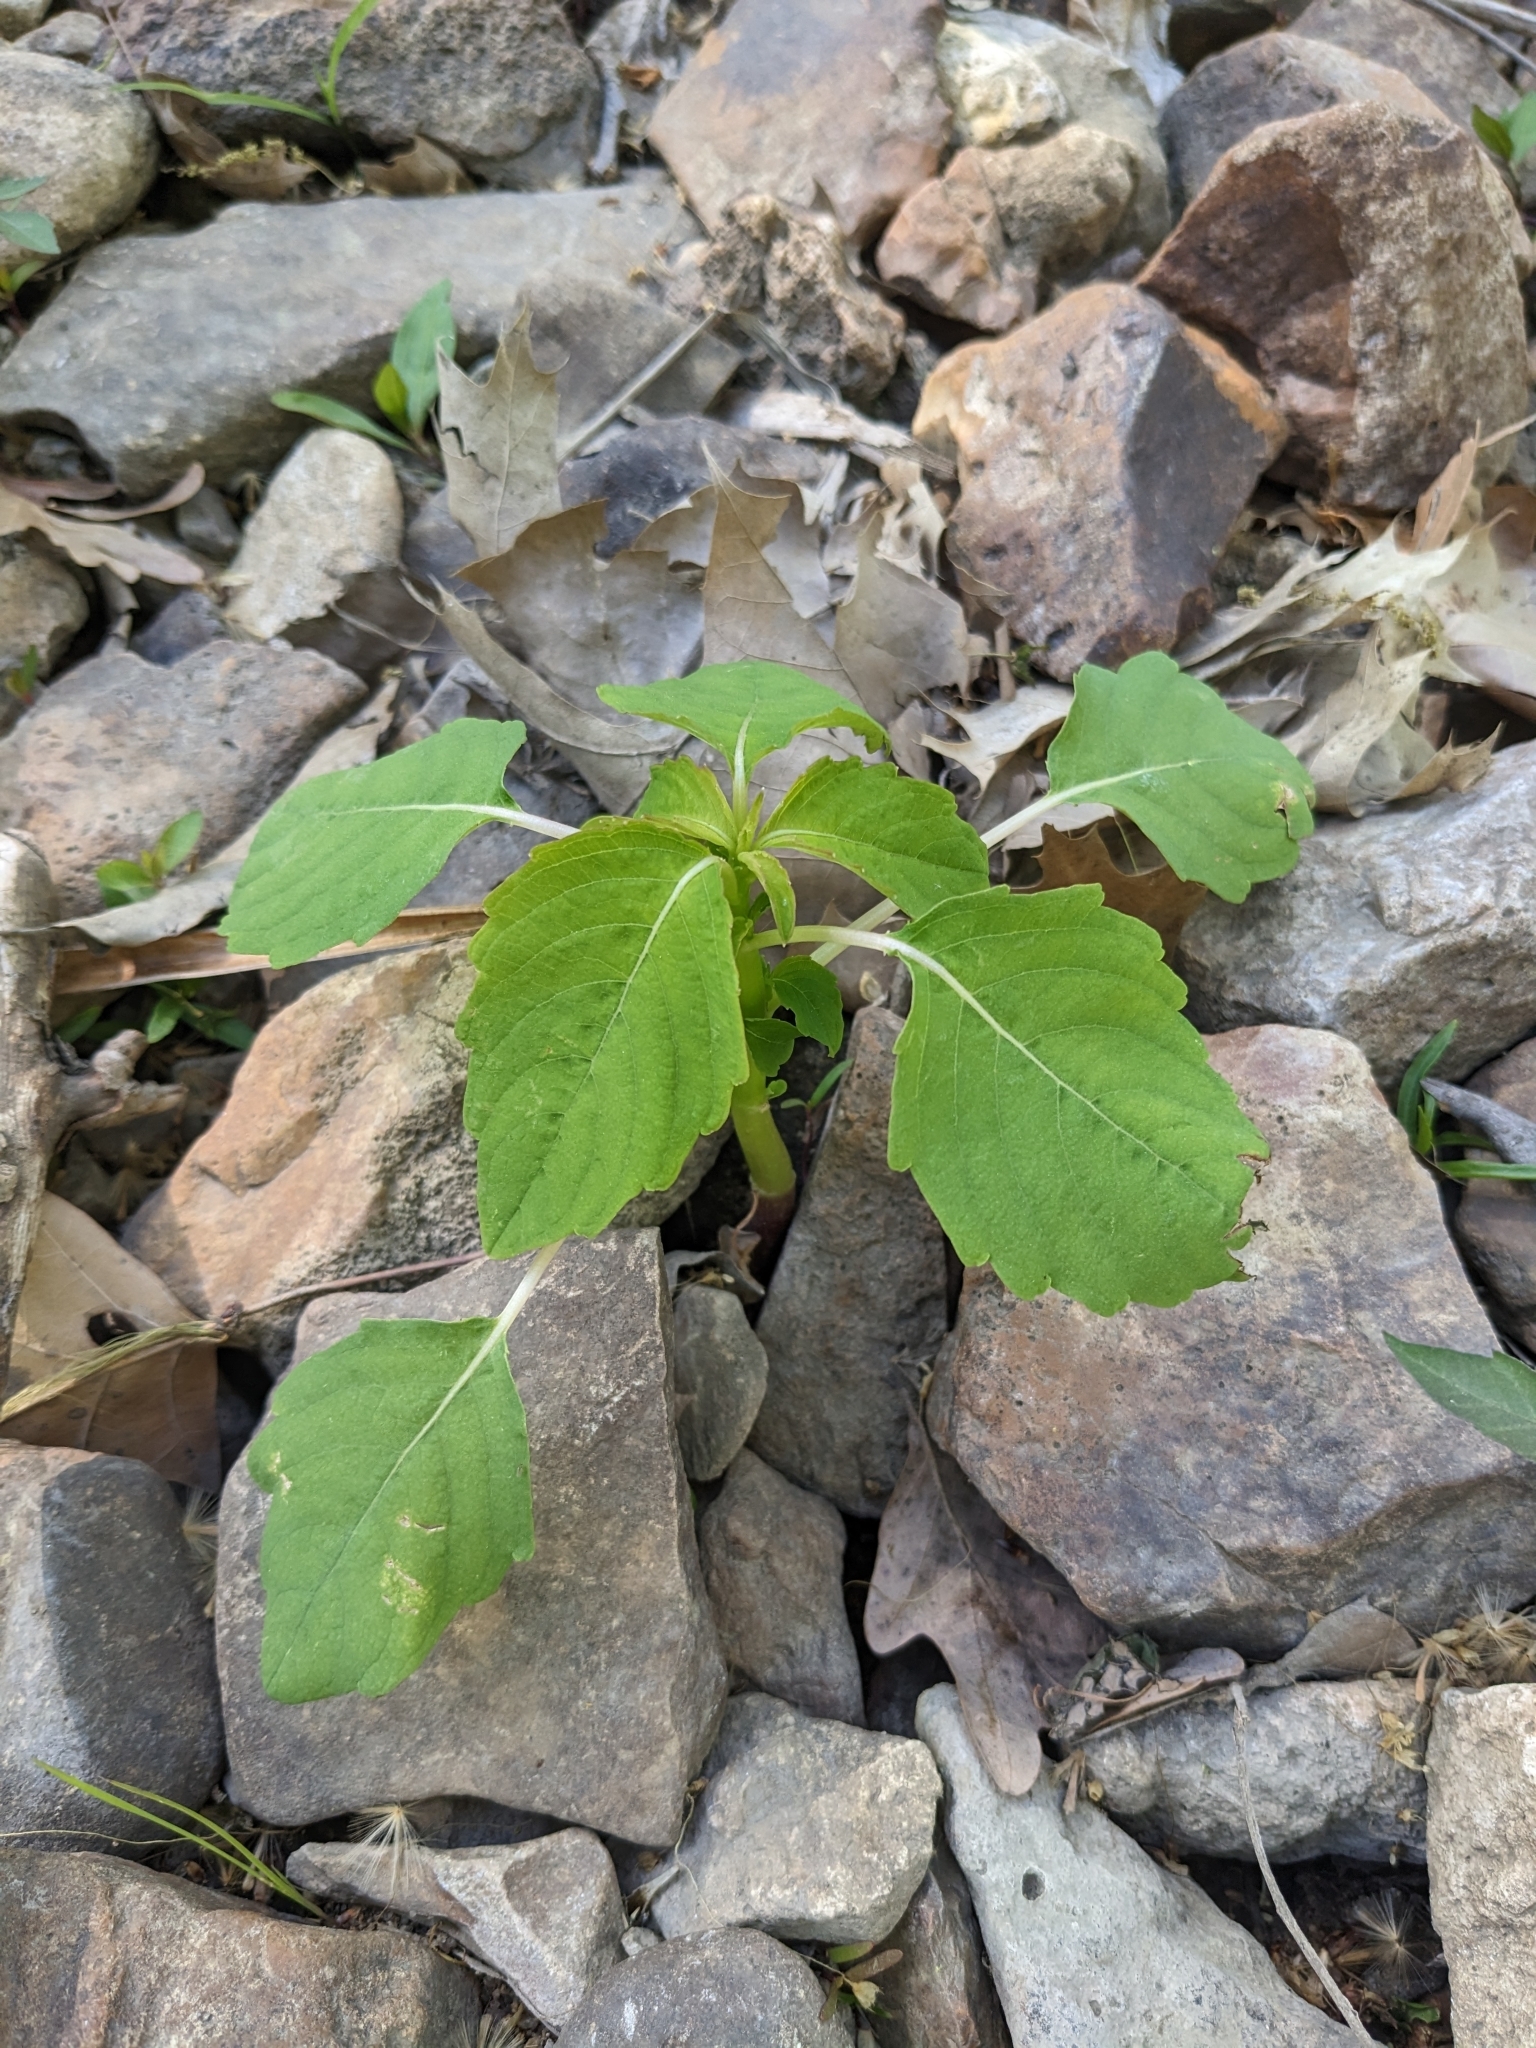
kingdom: Plantae
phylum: Tracheophyta
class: Magnoliopsida
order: Ericales
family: Balsaminaceae
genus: Impatiens
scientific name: Impatiens capensis
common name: Orange balsam
